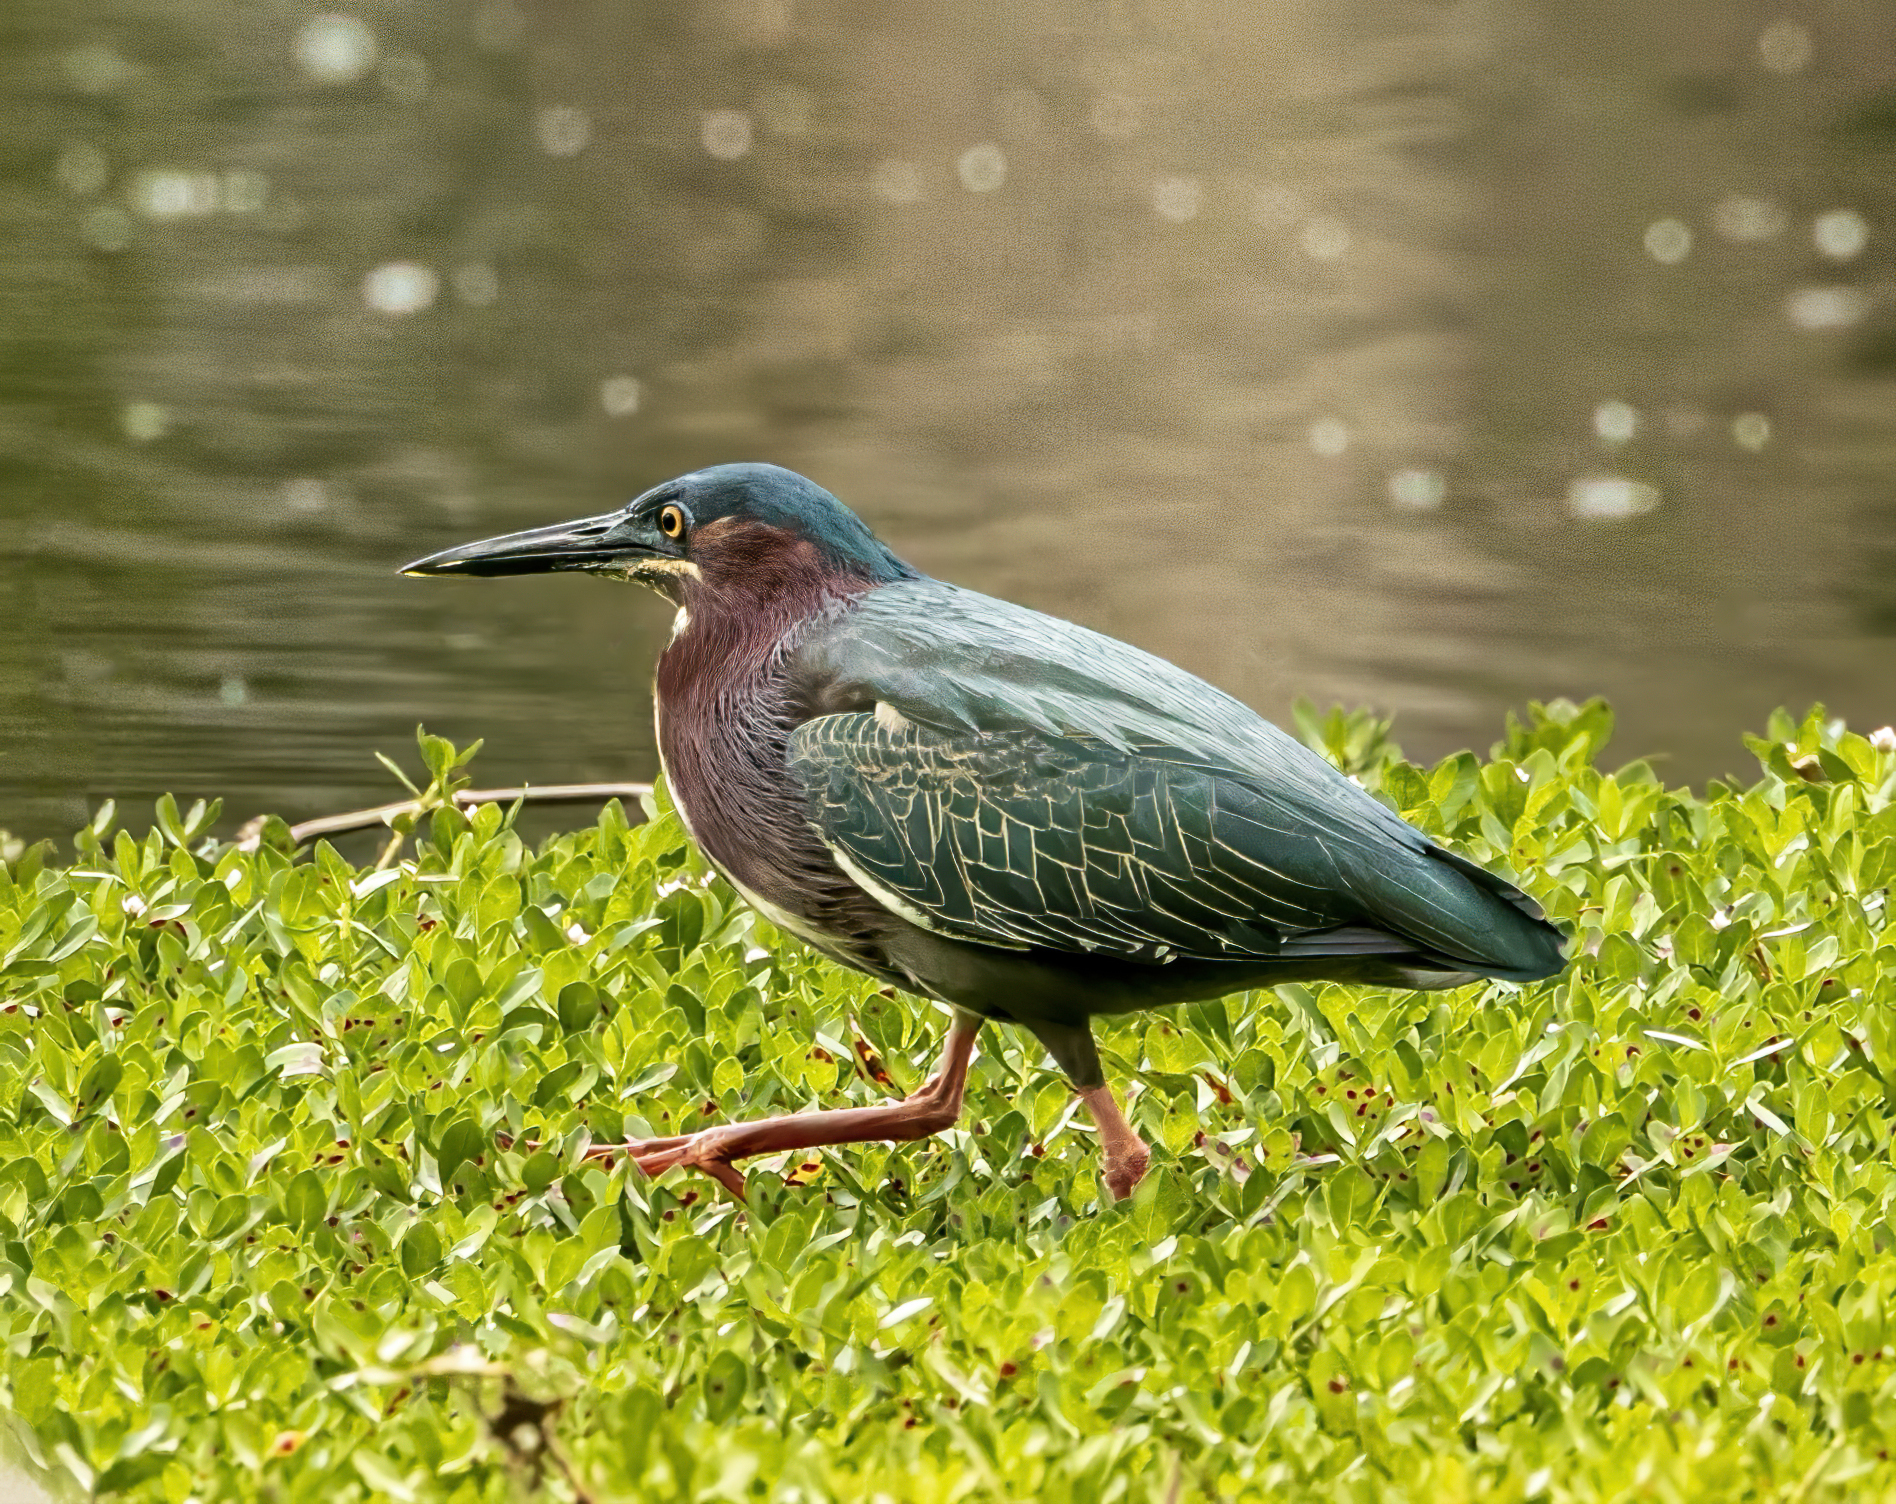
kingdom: Animalia
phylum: Chordata
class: Aves
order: Pelecaniformes
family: Ardeidae
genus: Butorides
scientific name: Butorides virescens
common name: Green heron
